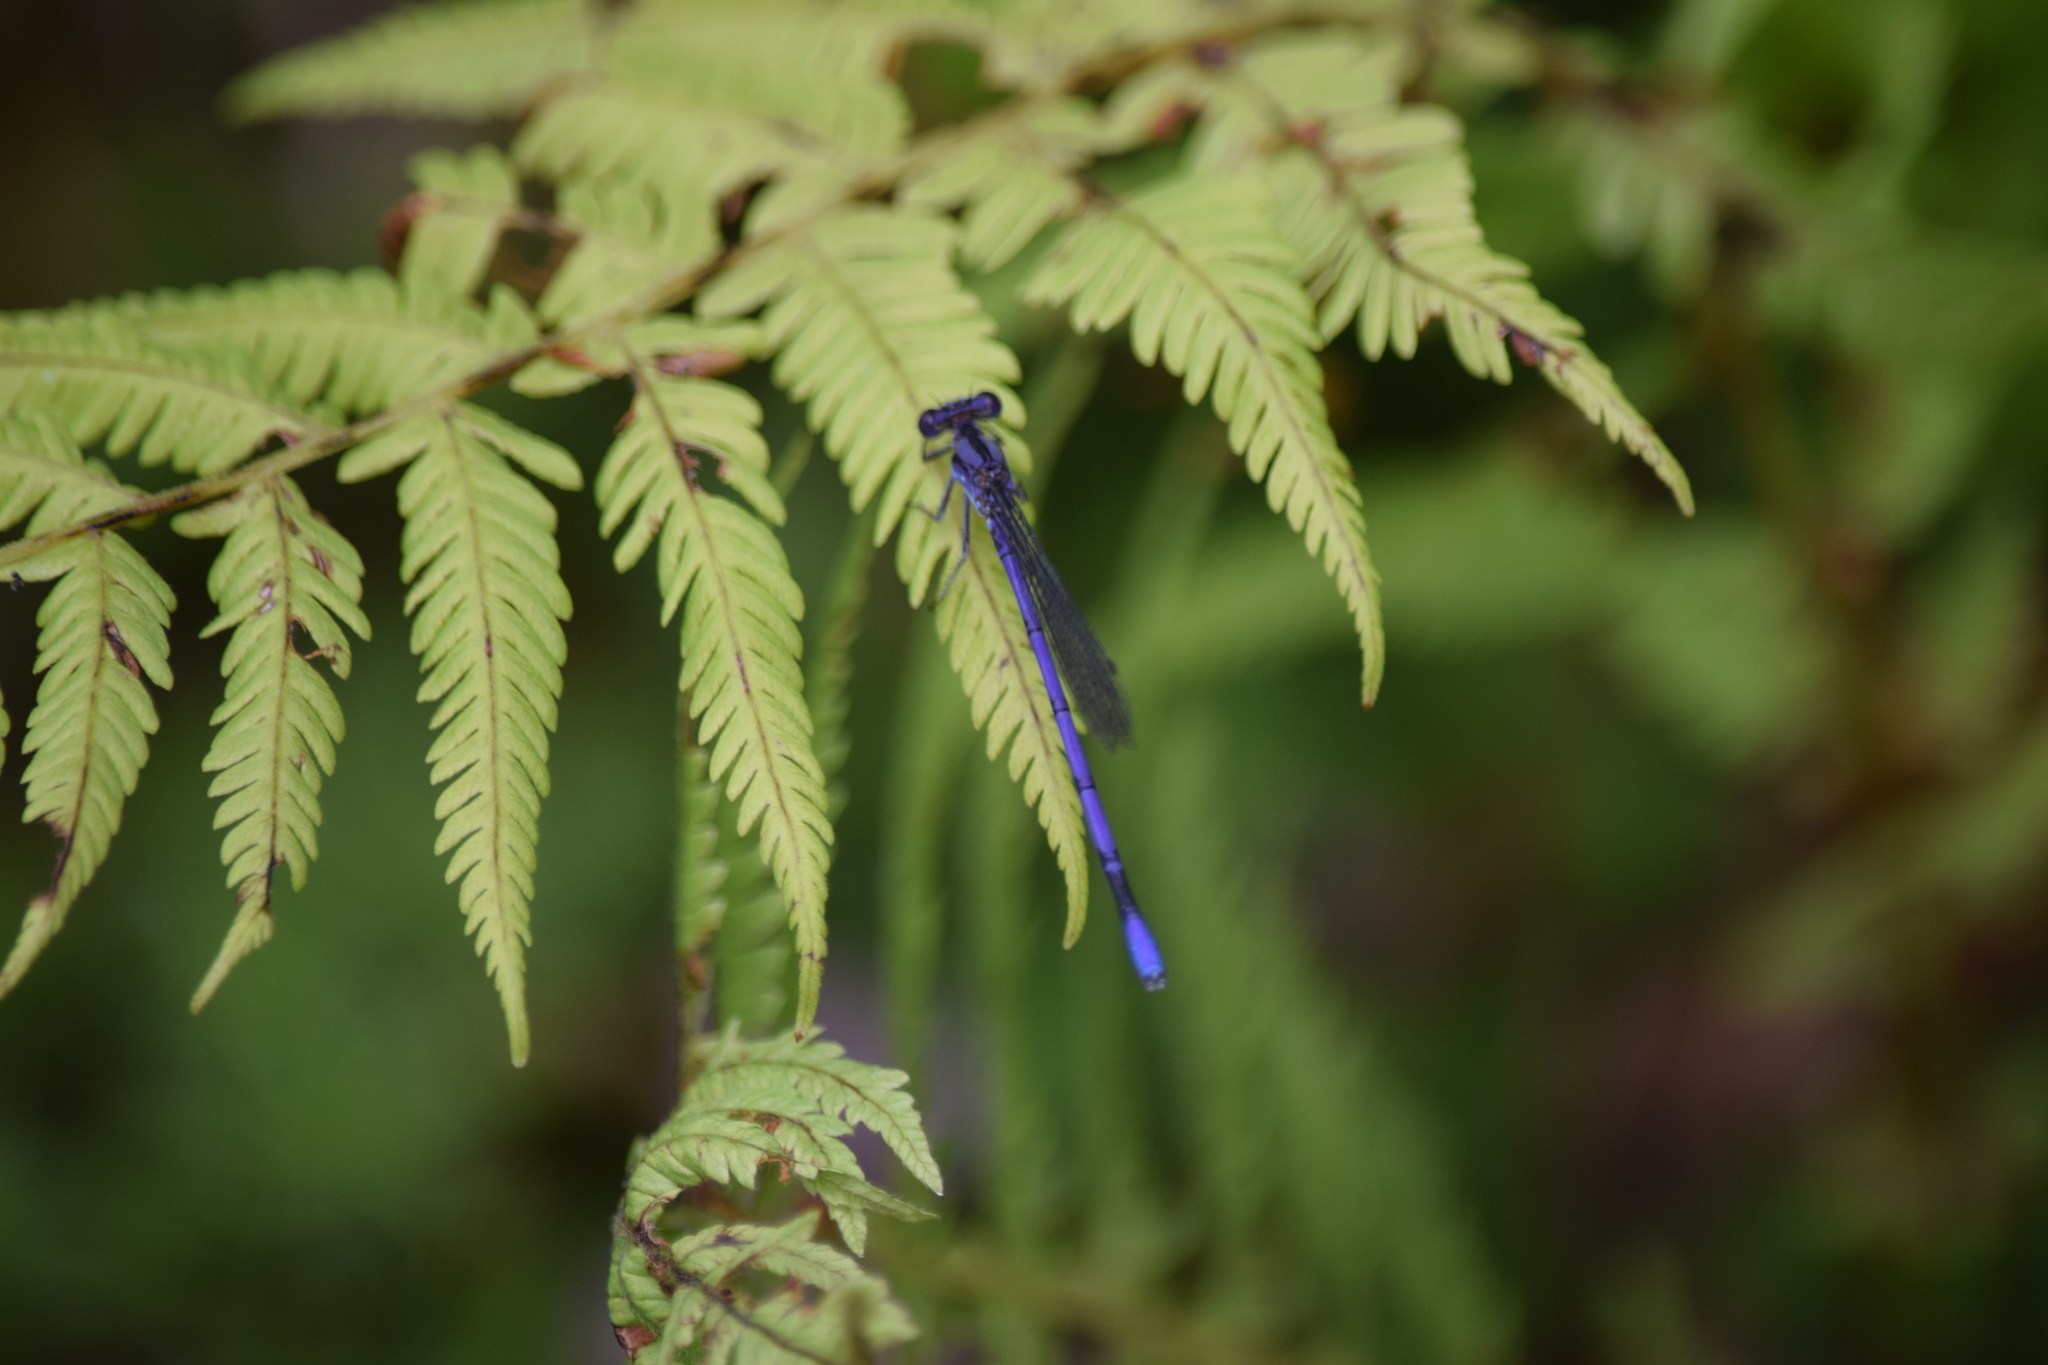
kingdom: Animalia
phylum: Arthropoda
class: Insecta
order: Odonata
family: Coenagrionidae
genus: Argia
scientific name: Argia fumipennis
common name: Variable dancer
